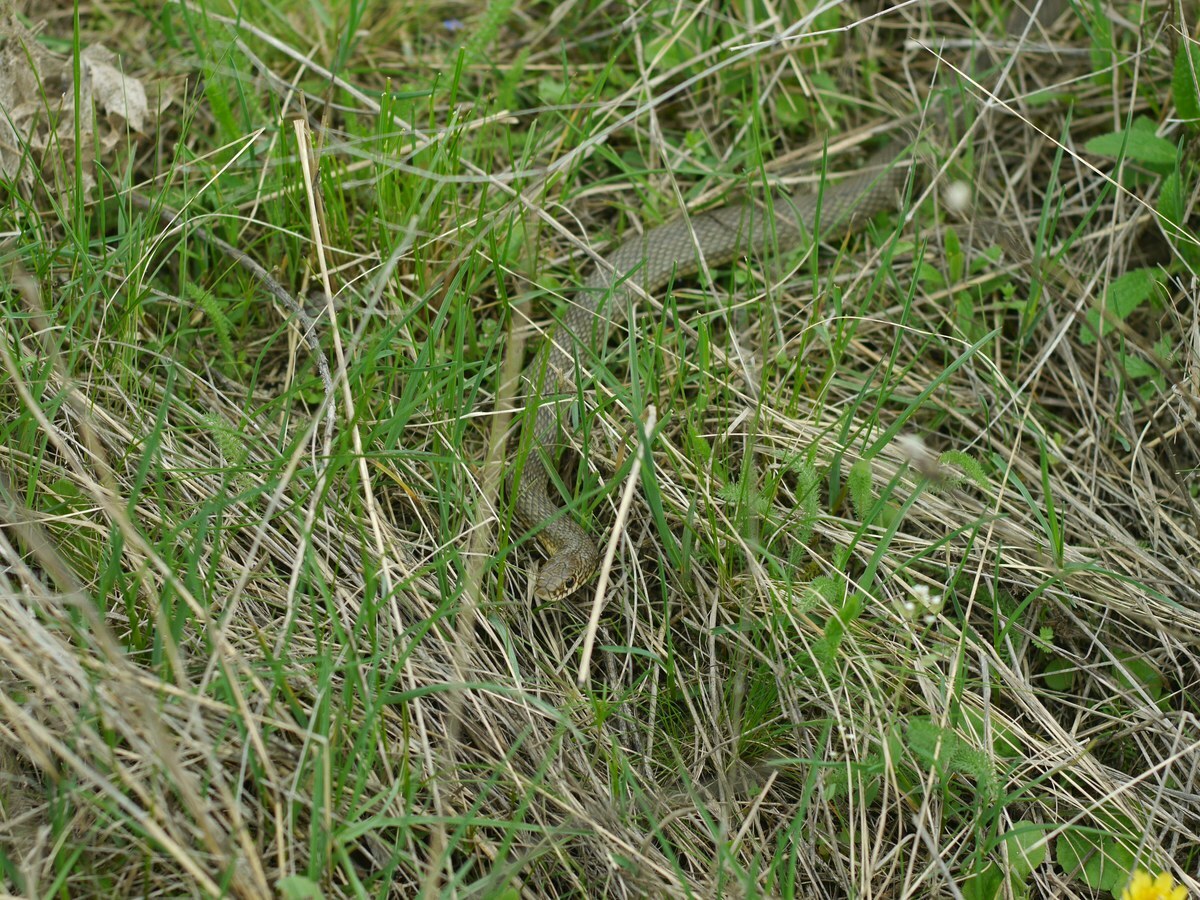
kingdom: Animalia
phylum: Chordata
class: Squamata
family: Colubridae
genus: Dolichophis
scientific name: Dolichophis caspius
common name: Large whip snake
